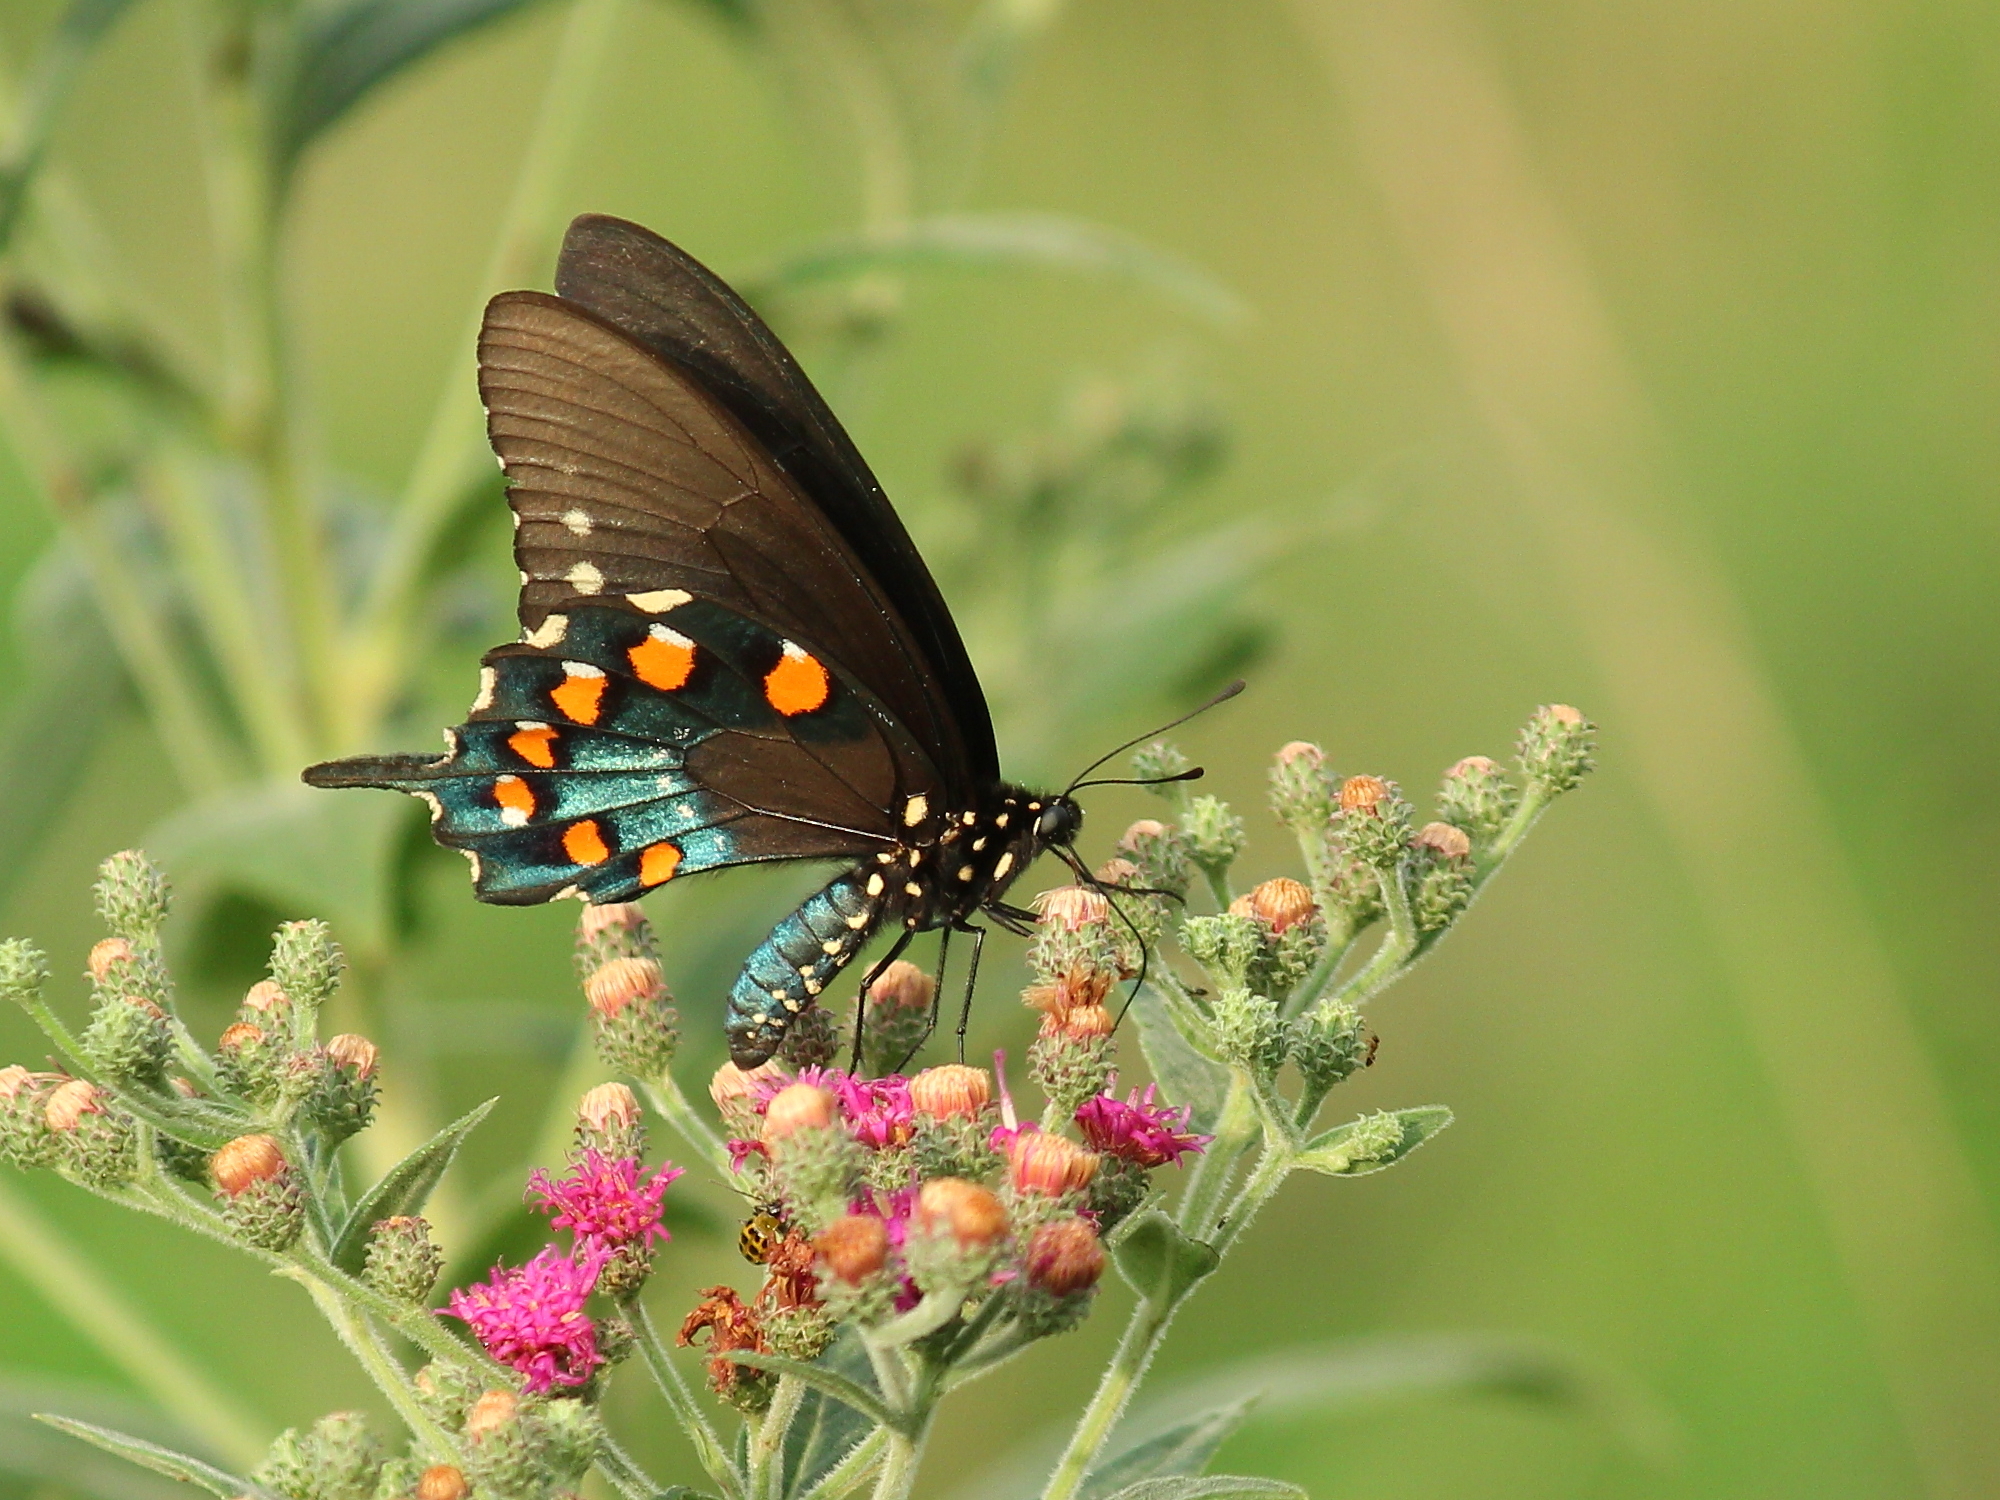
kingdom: Animalia
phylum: Arthropoda
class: Insecta
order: Lepidoptera
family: Papilionidae
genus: Battus
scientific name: Battus philenor
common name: Pipevine swallowtail
